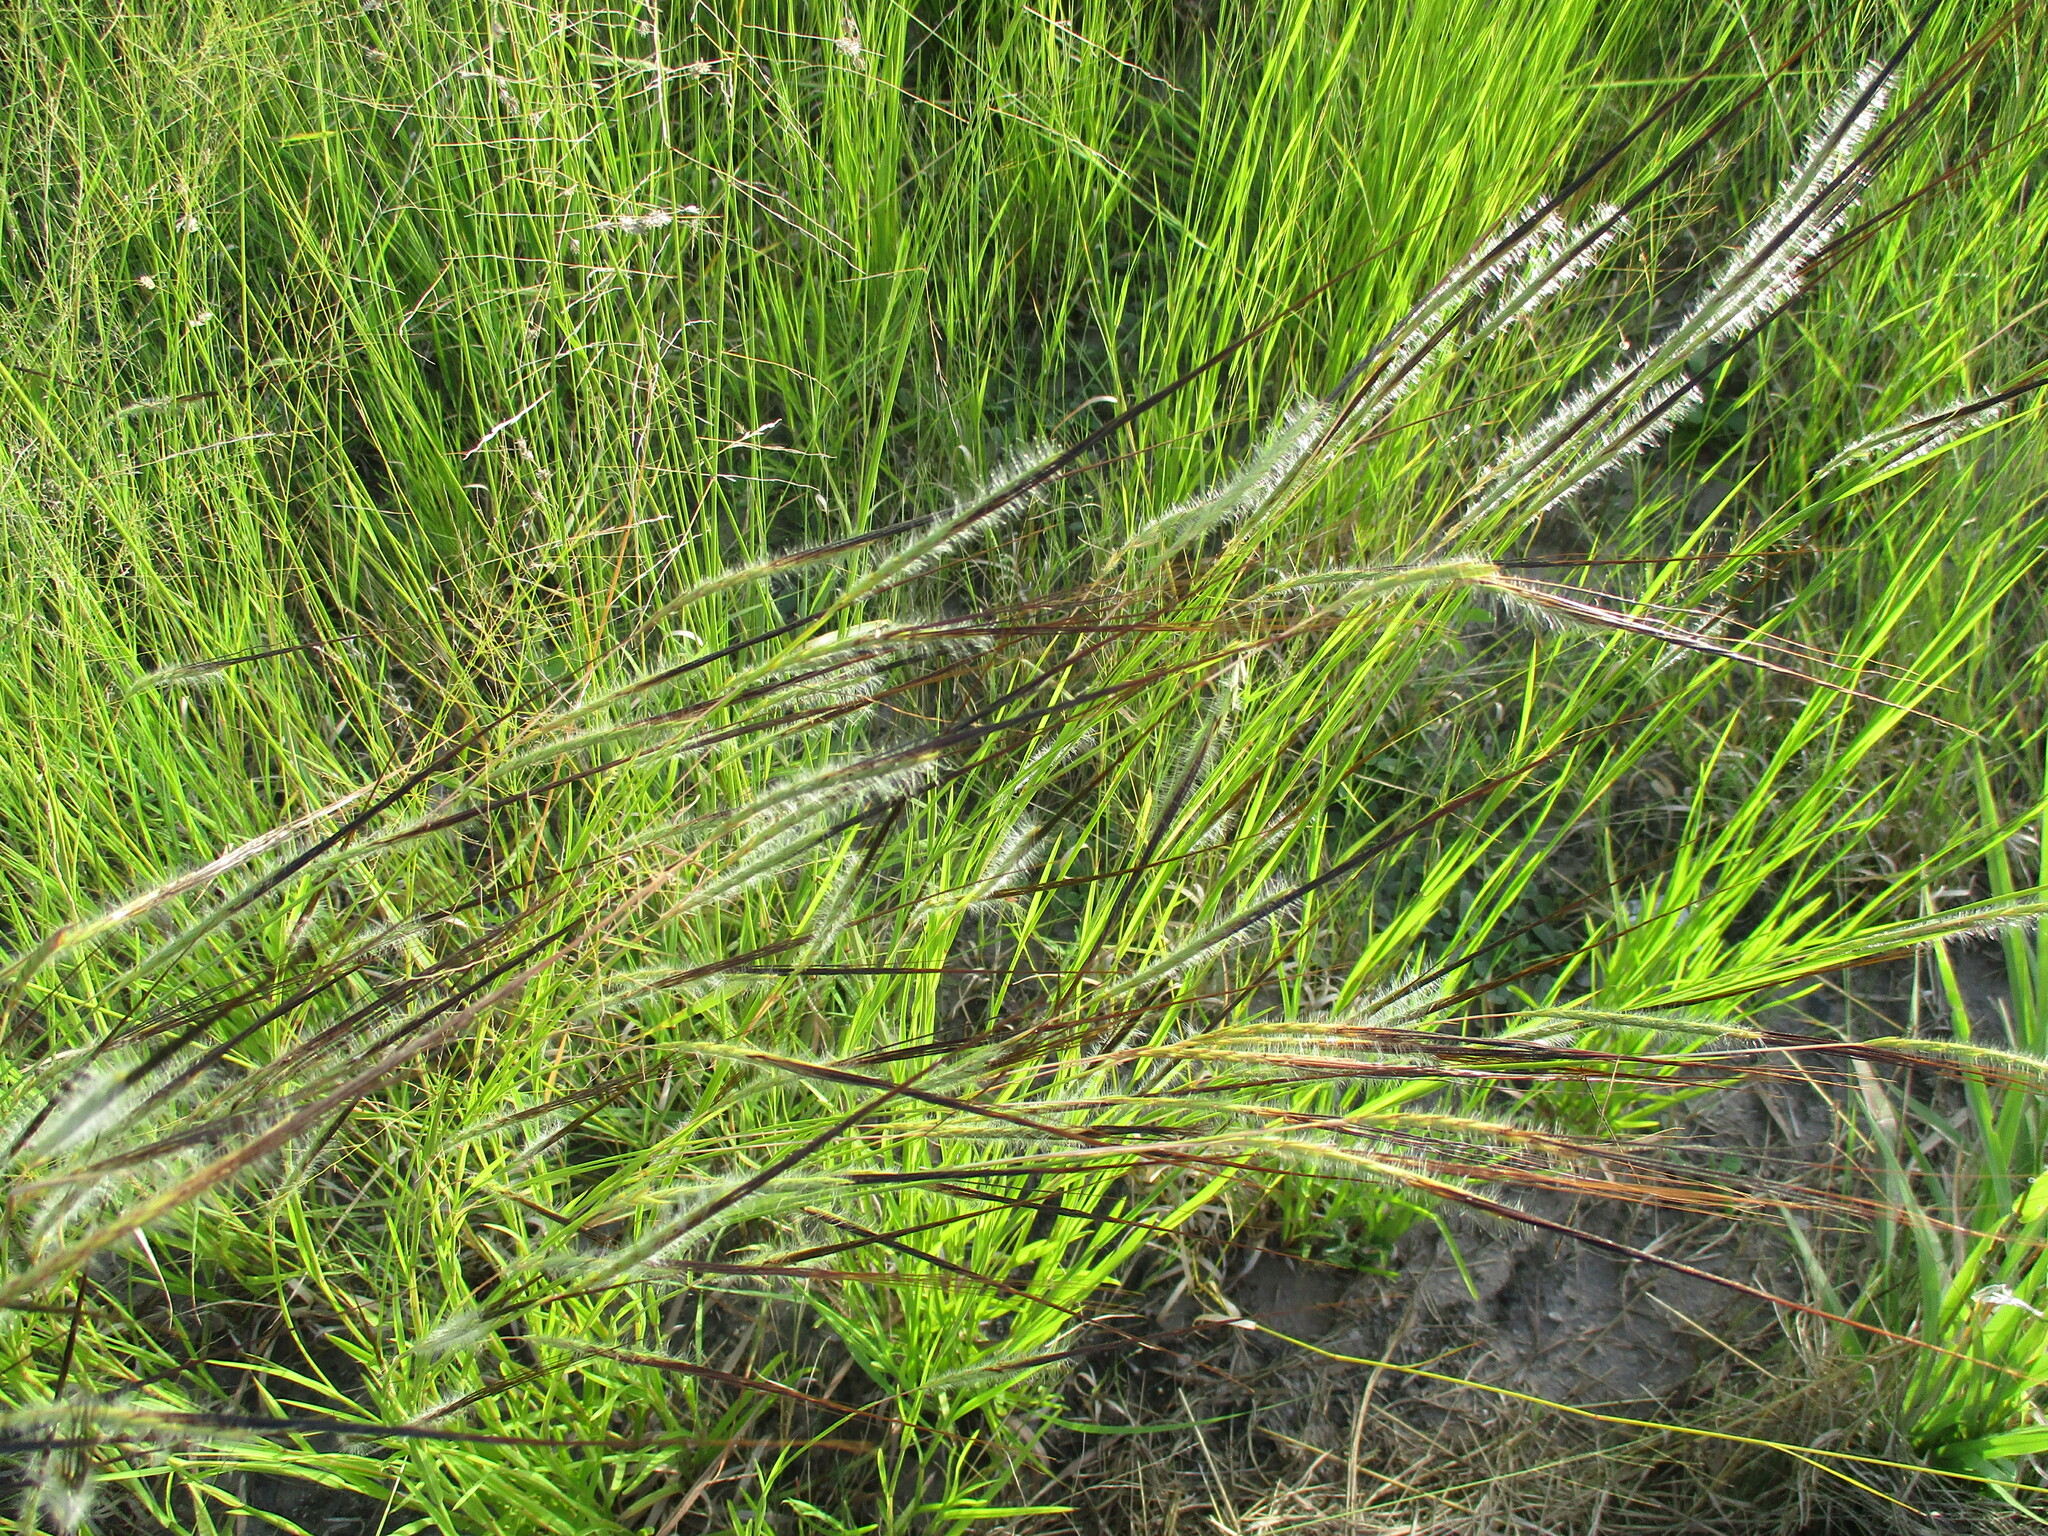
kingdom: Plantae
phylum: Tracheophyta
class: Liliopsida
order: Poales
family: Poaceae
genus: Heteropogon
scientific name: Heteropogon contortus
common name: Tanglehead
